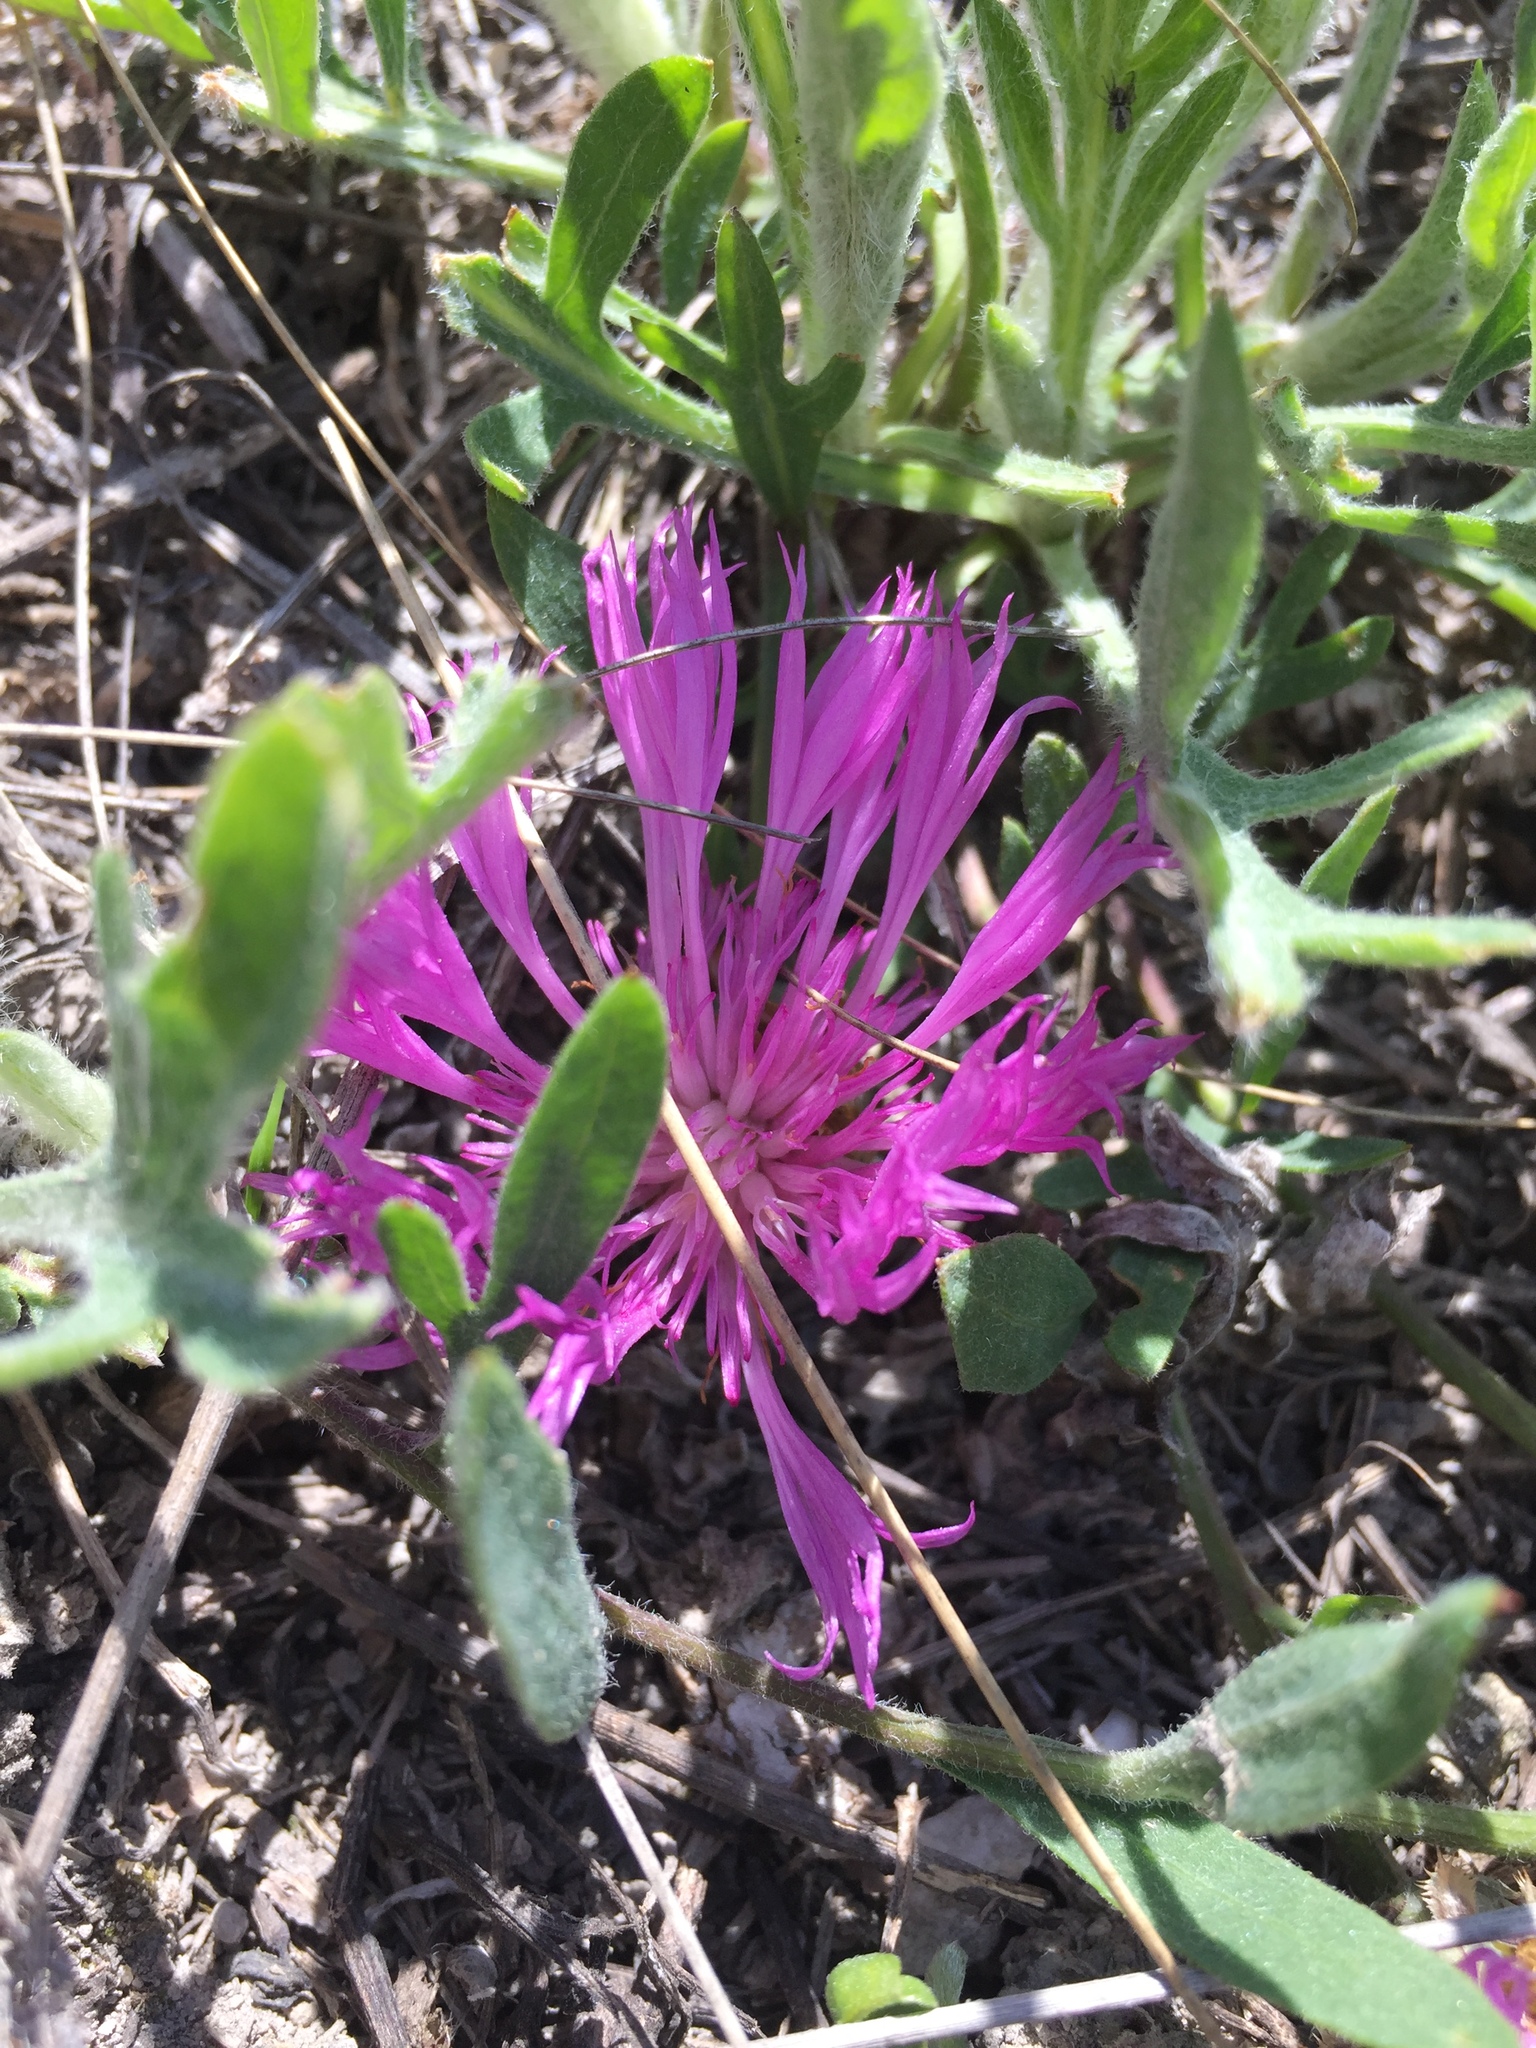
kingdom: Plantae
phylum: Tracheophyta
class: Magnoliopsida
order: Asterales
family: Asteraceae
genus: Psephellus
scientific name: Psephellus marschallianus
